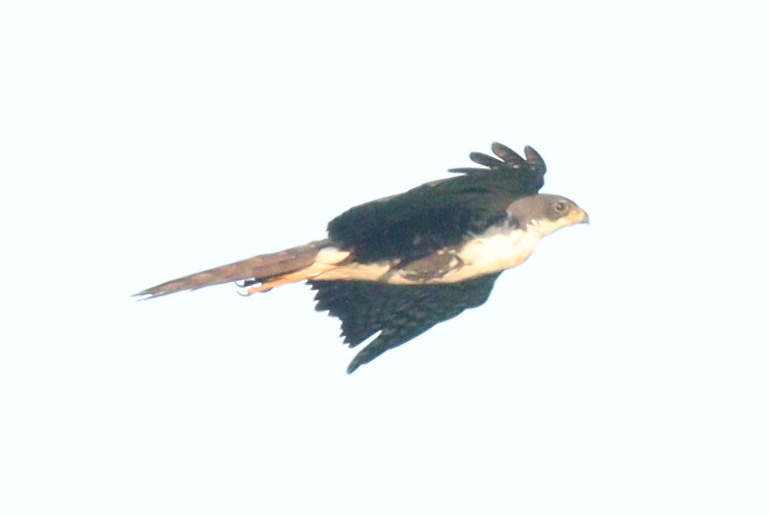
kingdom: Animalia
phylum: Chordata
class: Aves
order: Accipitriformes
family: Accipitridae
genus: Accipiter
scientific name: Accipiter melanoleucus
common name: Black sparrowhawk
